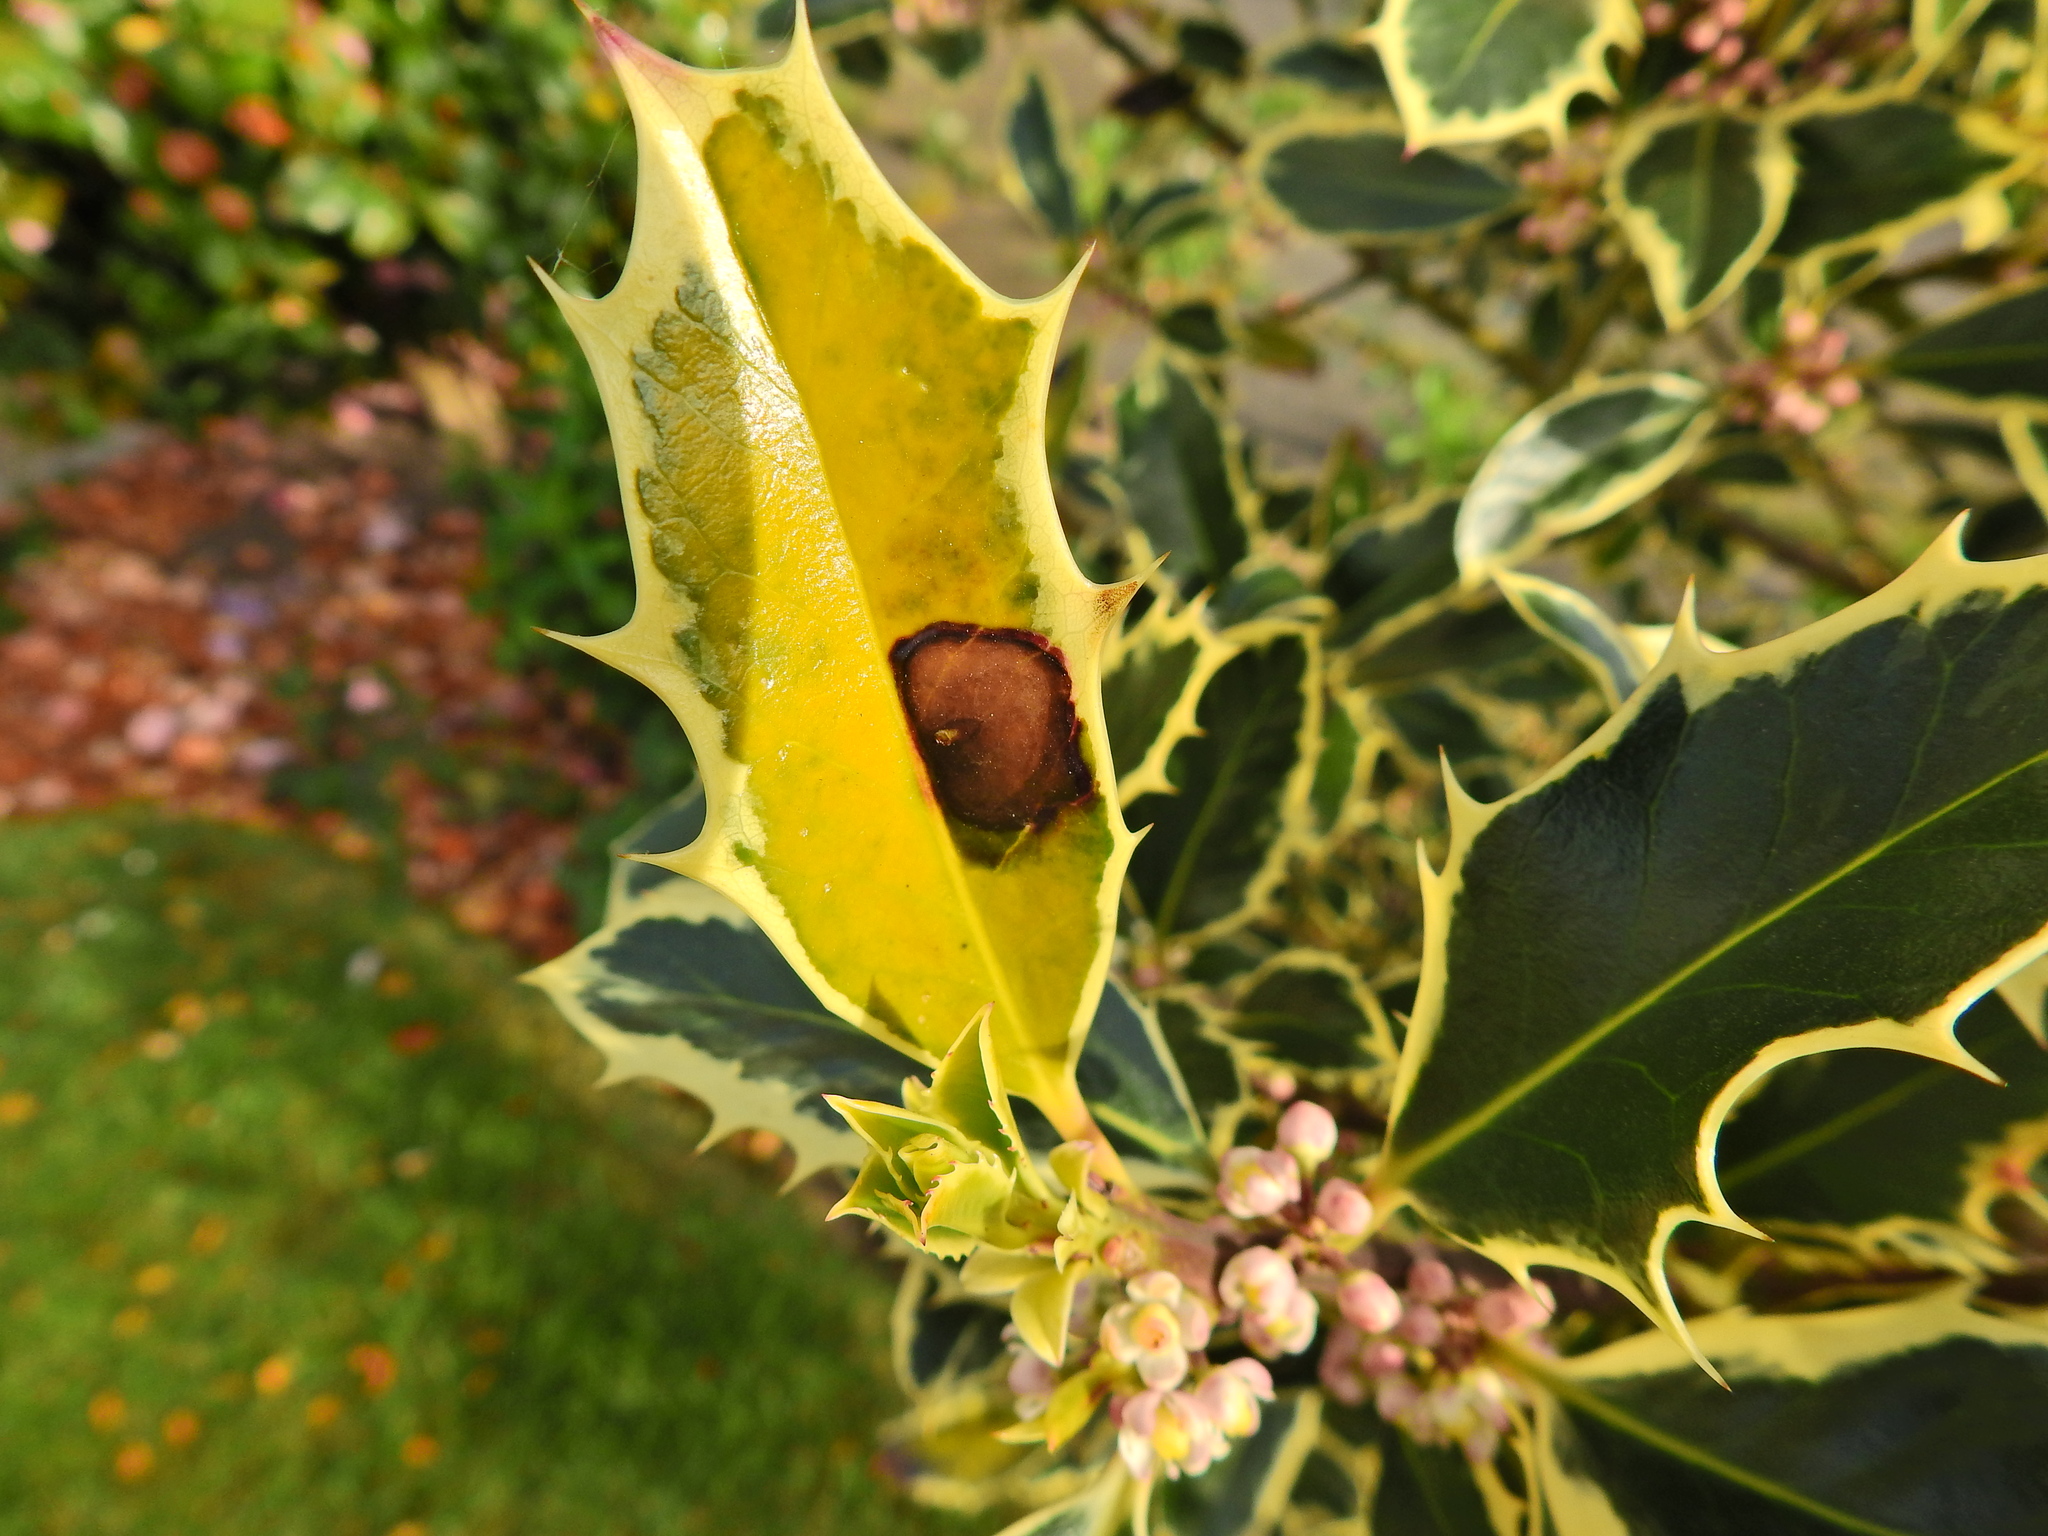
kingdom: Animalia
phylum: Arthropoda
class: Insecta
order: Diptera
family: Agromyzidae
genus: Phytomyza
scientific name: Phytomyza ilicis
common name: Holly leafminer
